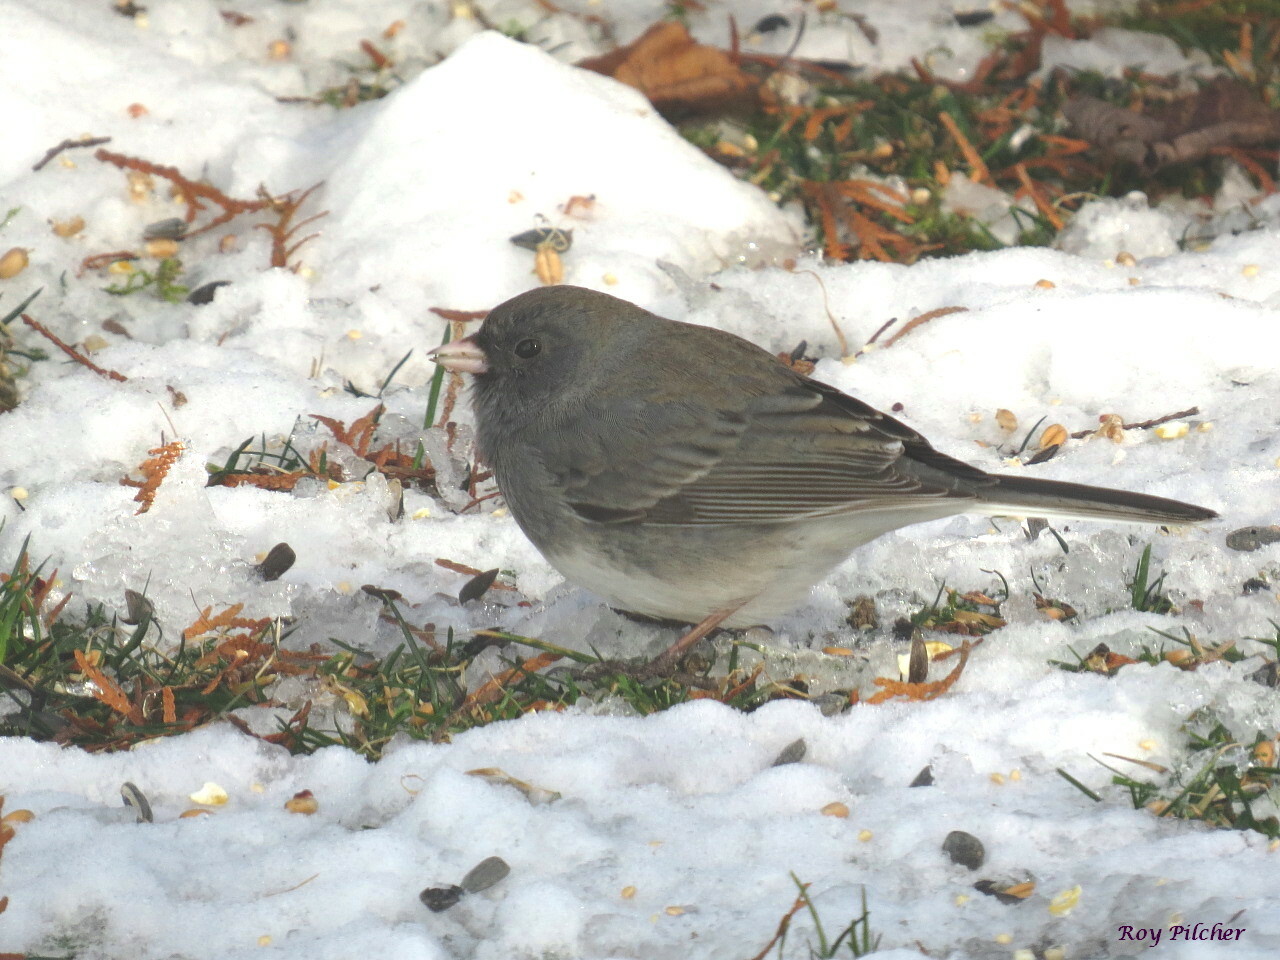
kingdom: Animalia
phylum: Chordata
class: Aves
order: Passeriformes
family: Passerellidae
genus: Junco
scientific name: Junco hyemalis
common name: Dark-eyed junco
